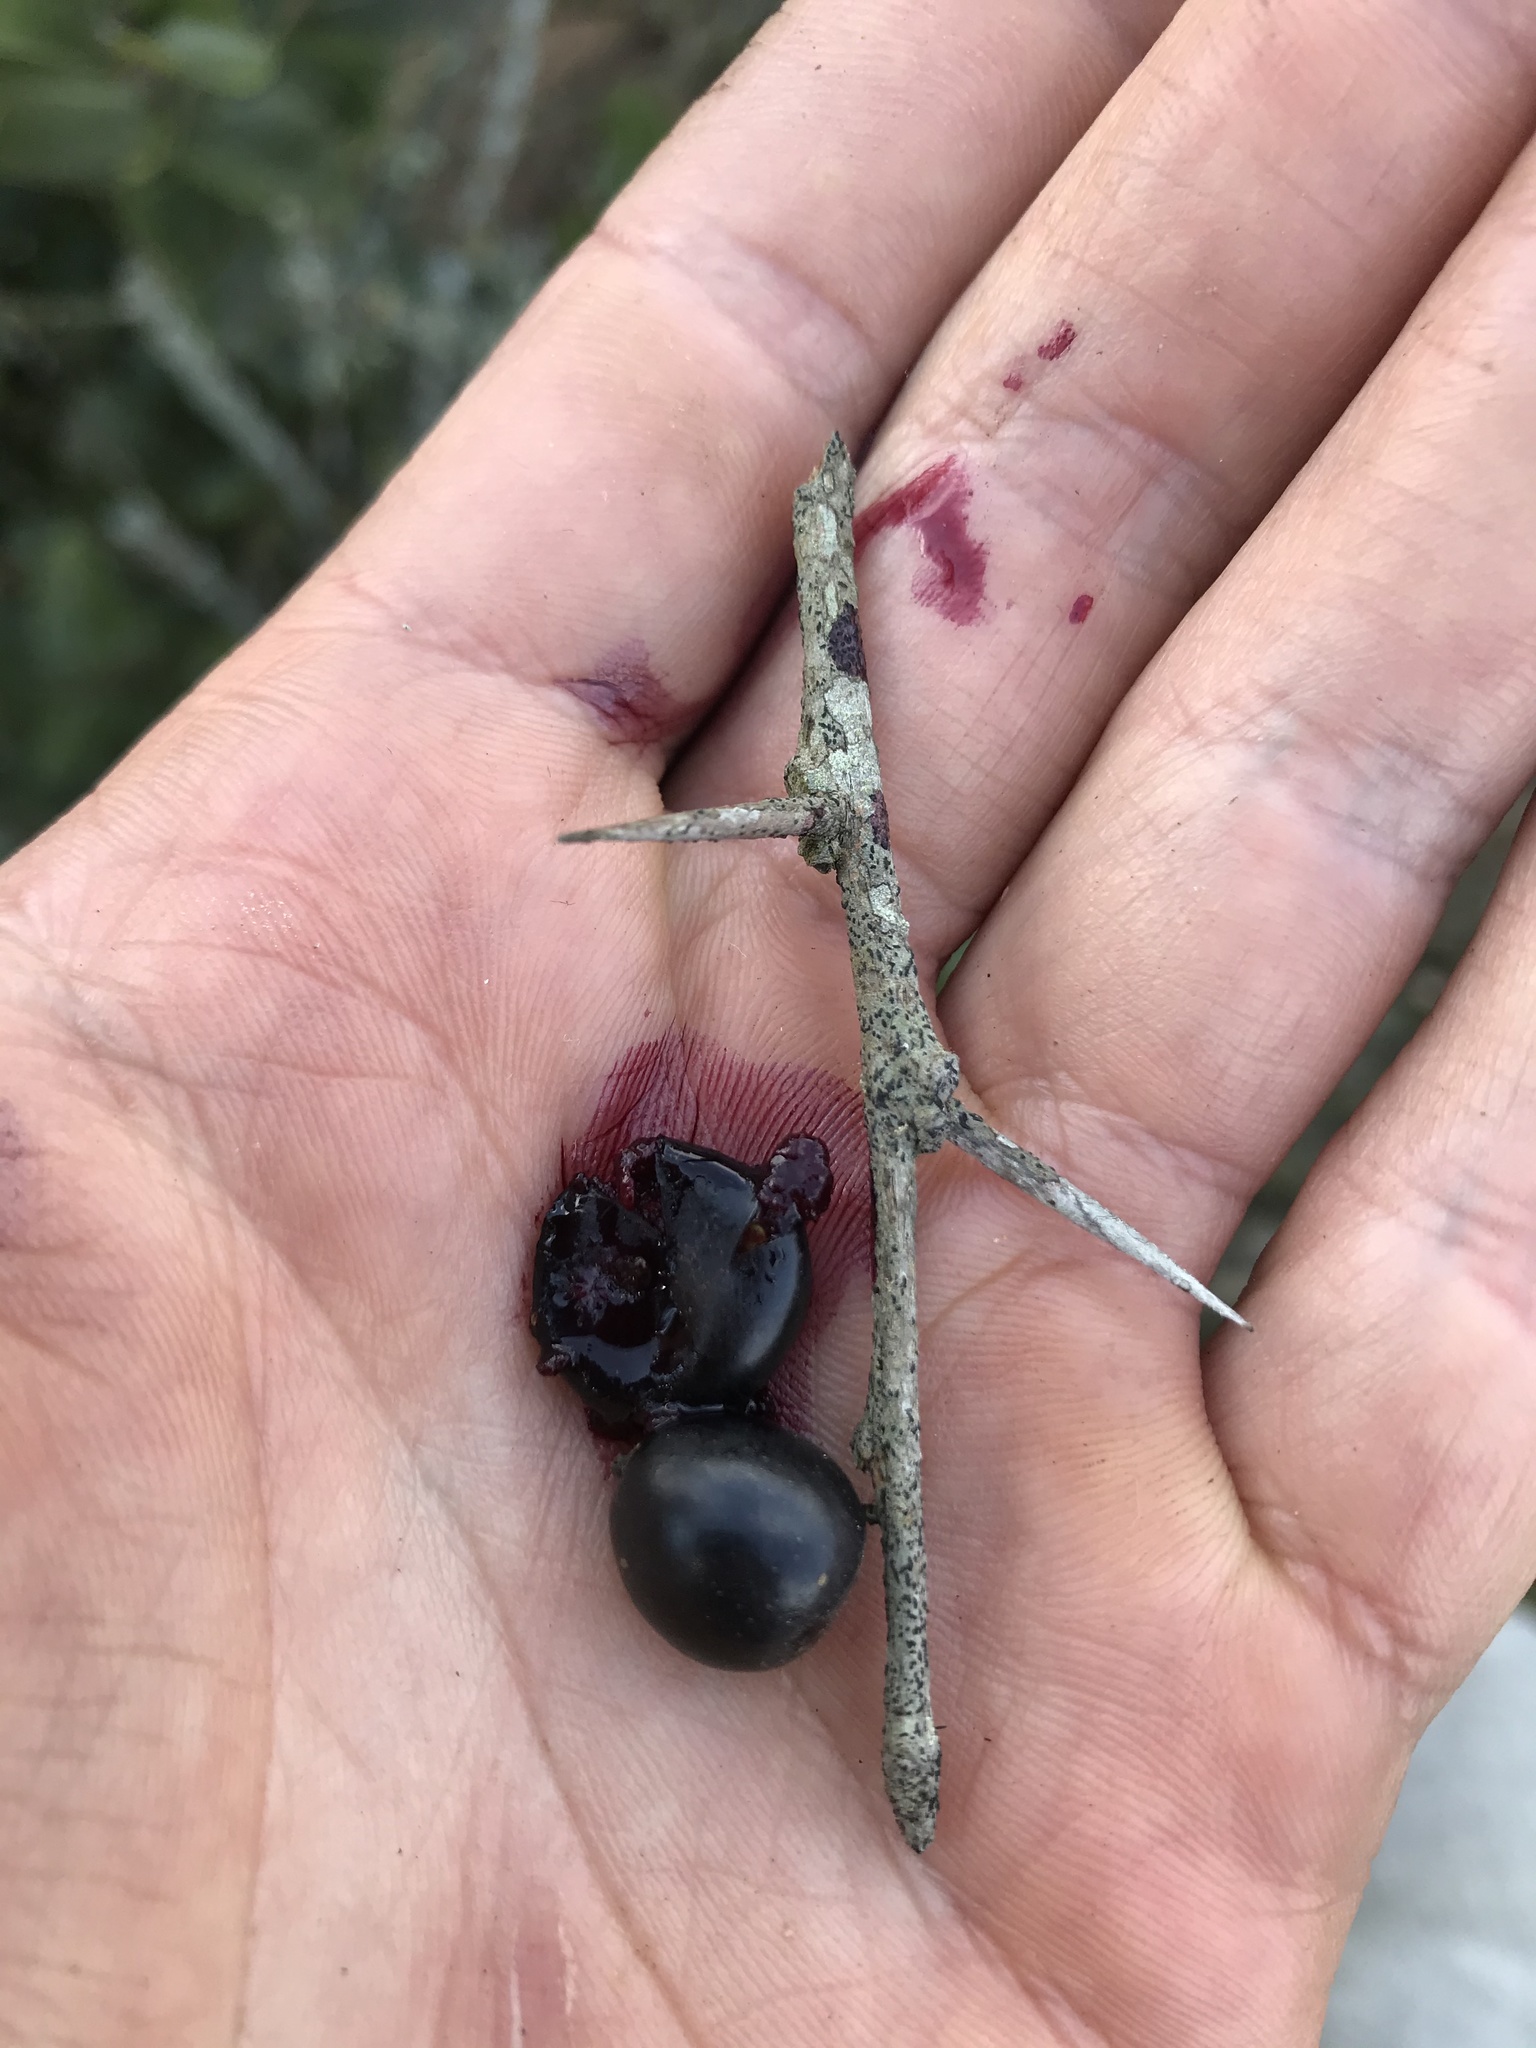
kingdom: Plantae
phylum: Tracheophyta
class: Magnoliopsida
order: Malpighiales
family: Salicaceae
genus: Xylosma
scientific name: Xylosma spiculifera
